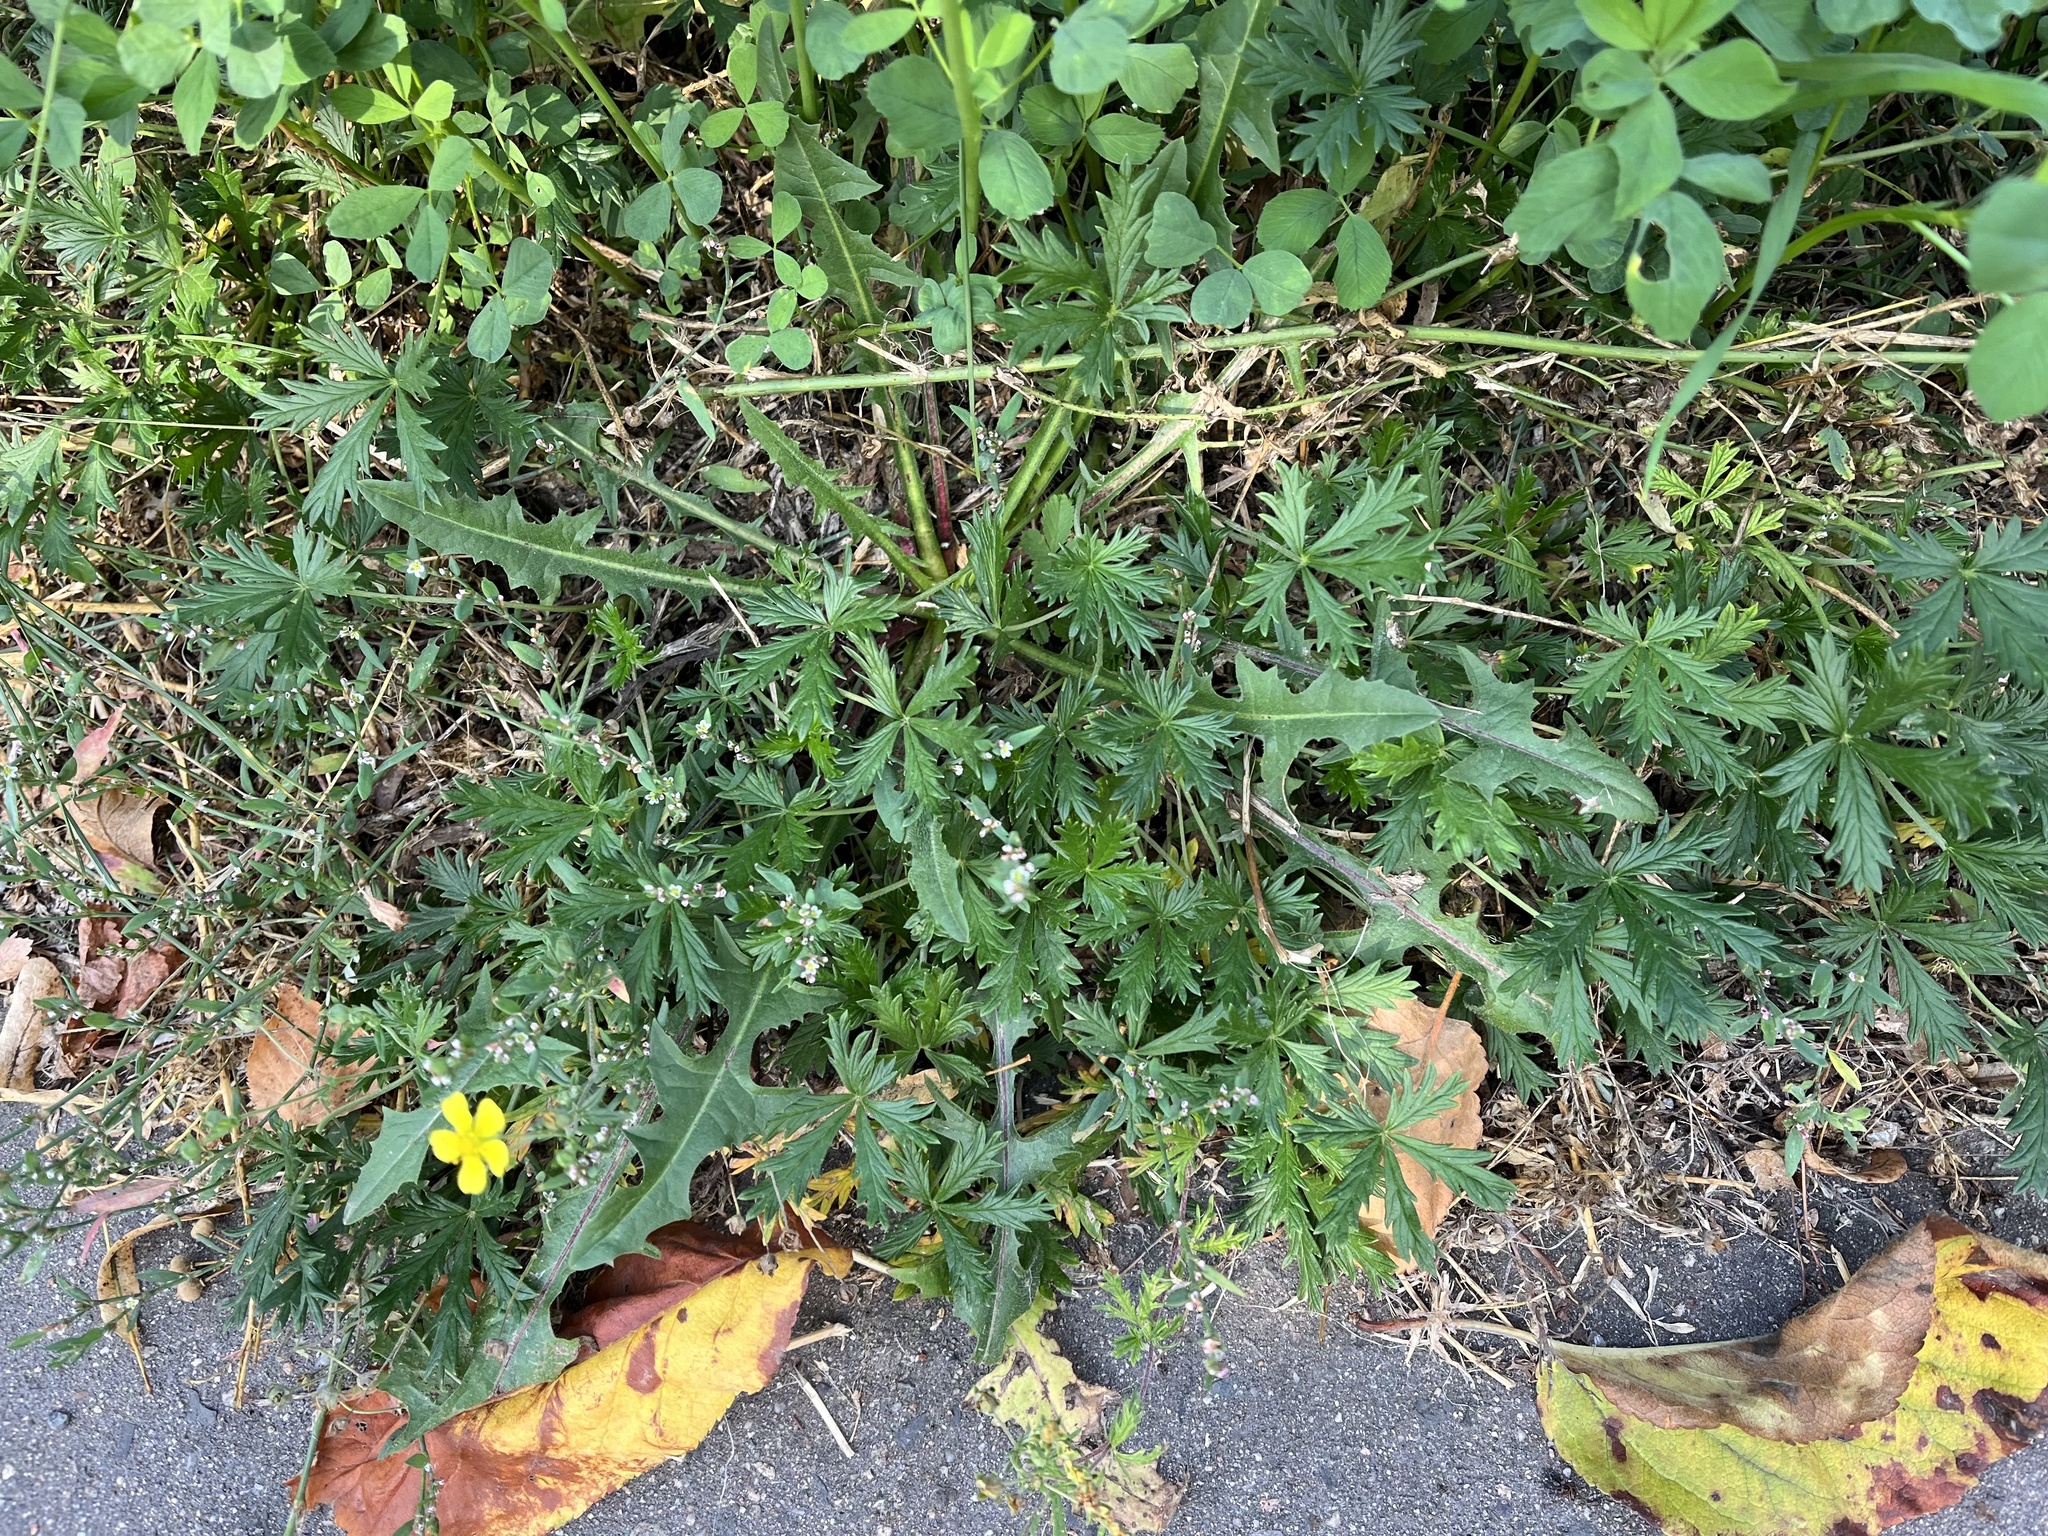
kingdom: Plantae
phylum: Tracheophyta
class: Magnoliopsida
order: Rosales
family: Rosaceae
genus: Potentilla
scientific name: Potentilla argentea
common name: Hoary cinquefoil
